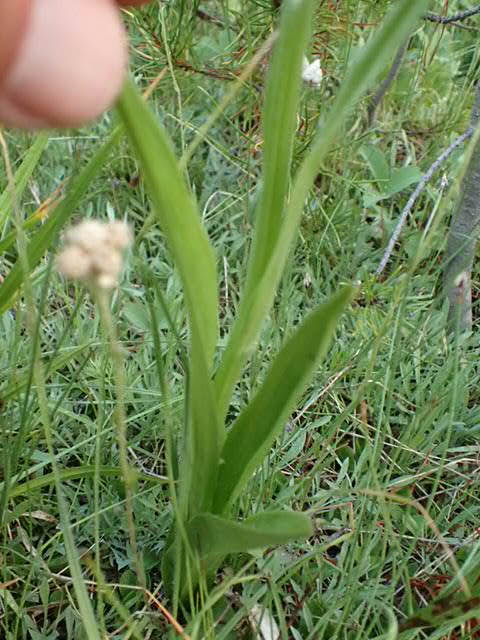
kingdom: Plantae
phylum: Tracheophyta
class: Liliopsida
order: Asparagales
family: Orchidaceae
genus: Platanthera
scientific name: Platanthera dilatata
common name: Bog candles
